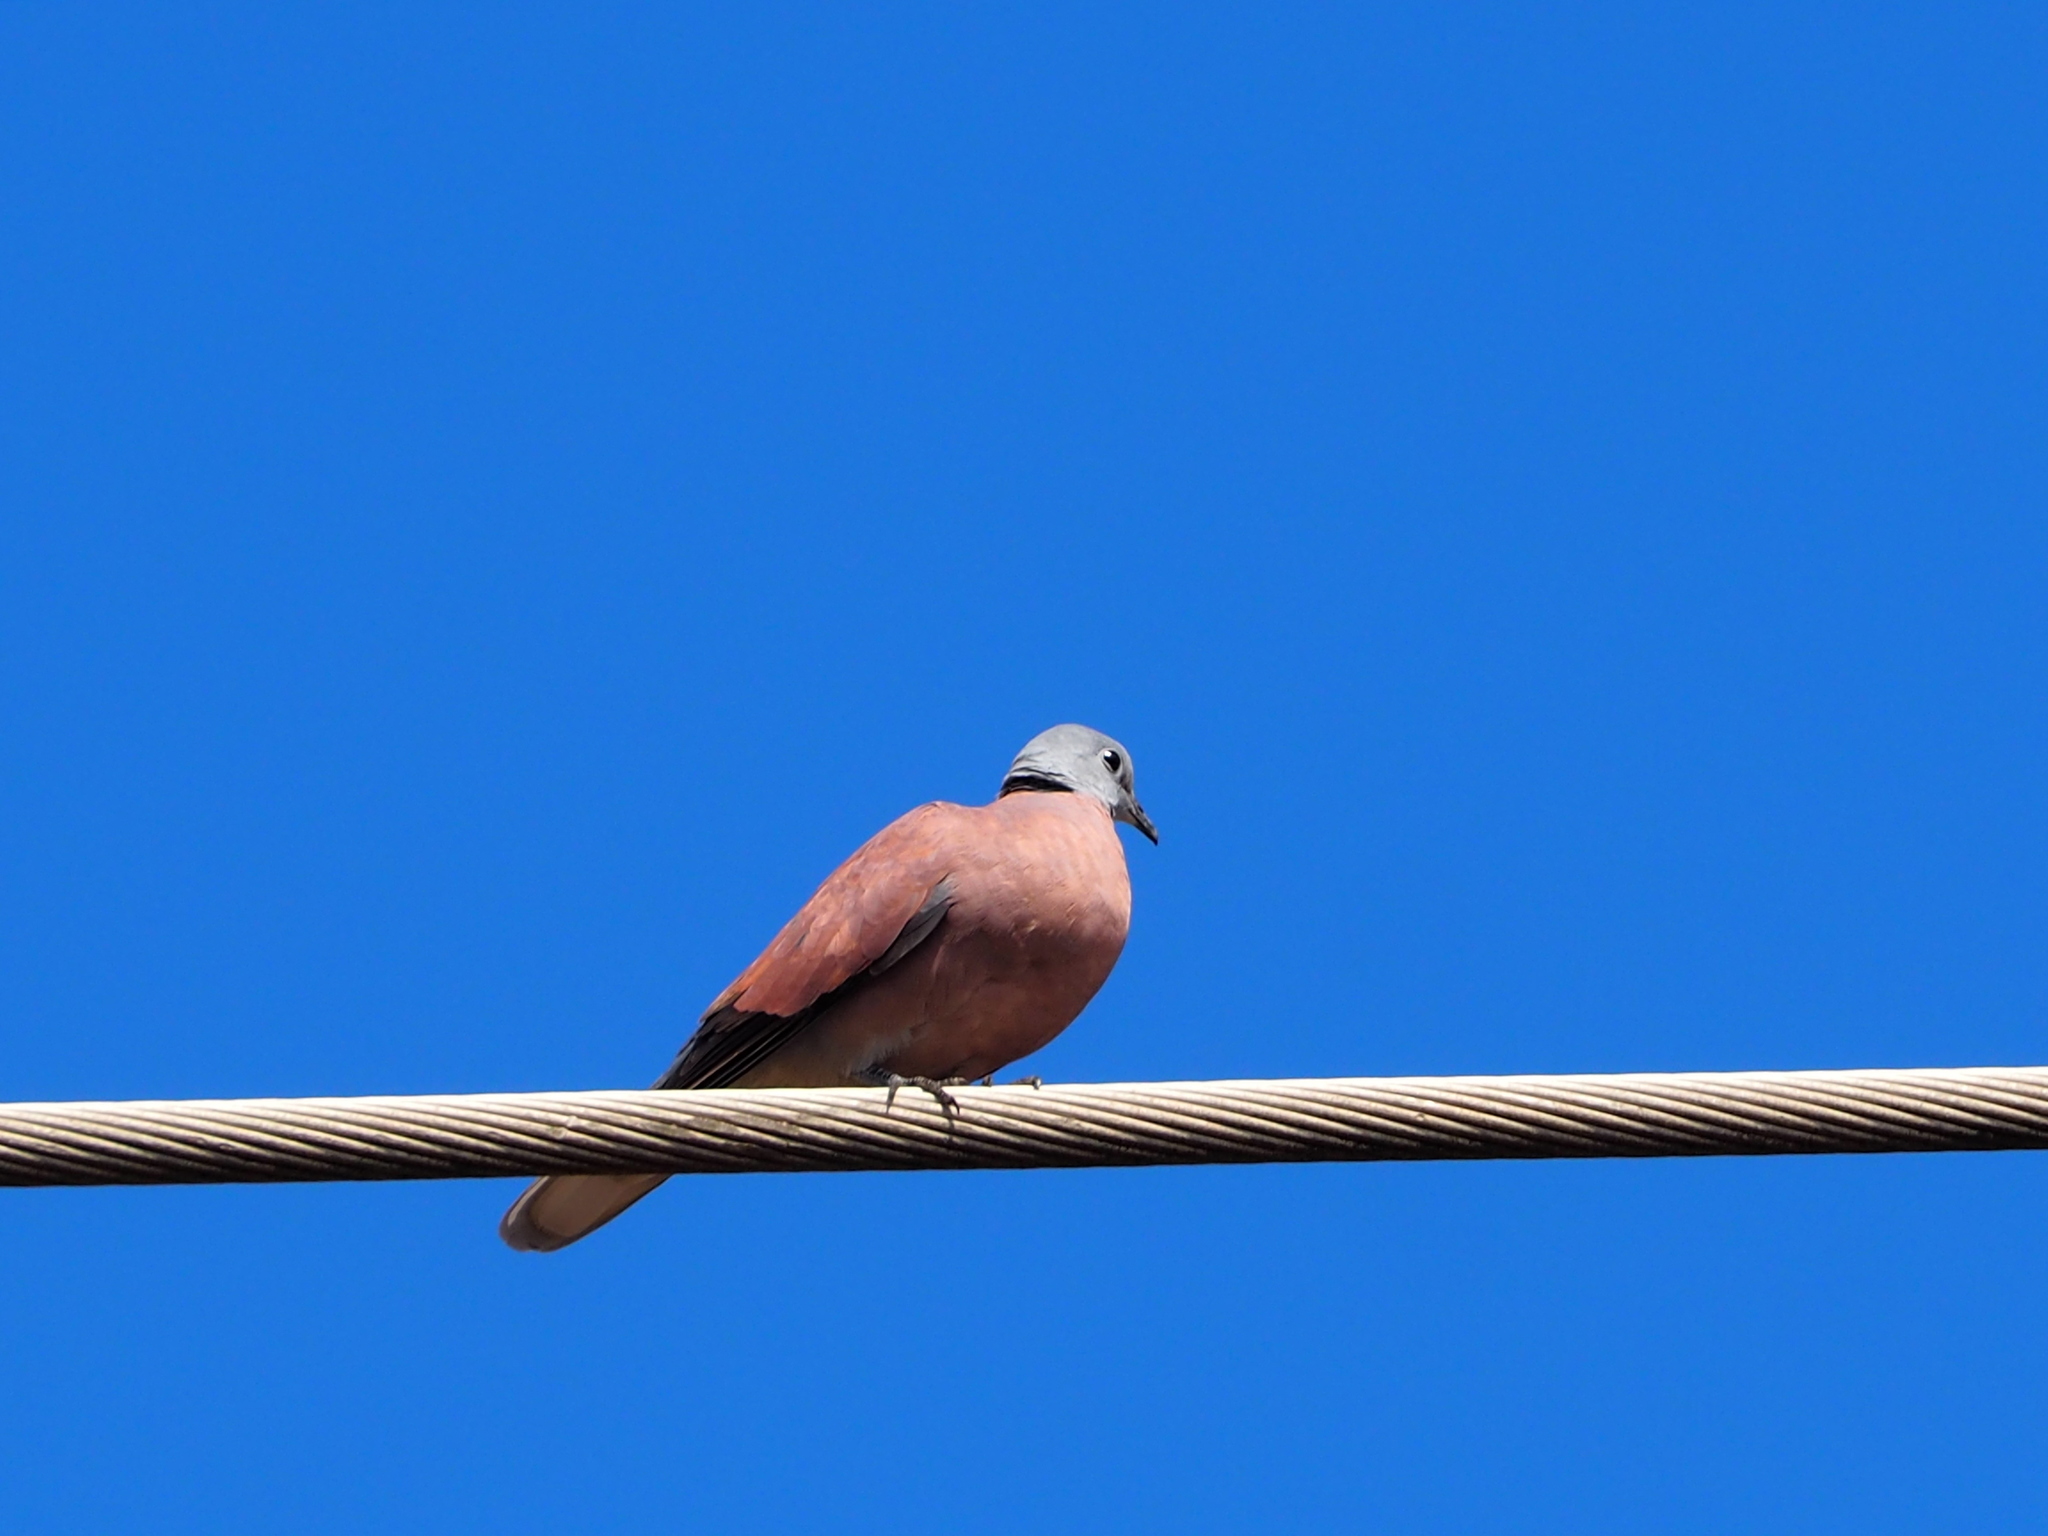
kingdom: Animalia
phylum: Chordata
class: Aves
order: Columbiformes
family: Columbidae
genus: Streptopelia
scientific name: Streptopelia tranquebarica
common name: Red turtle dove
